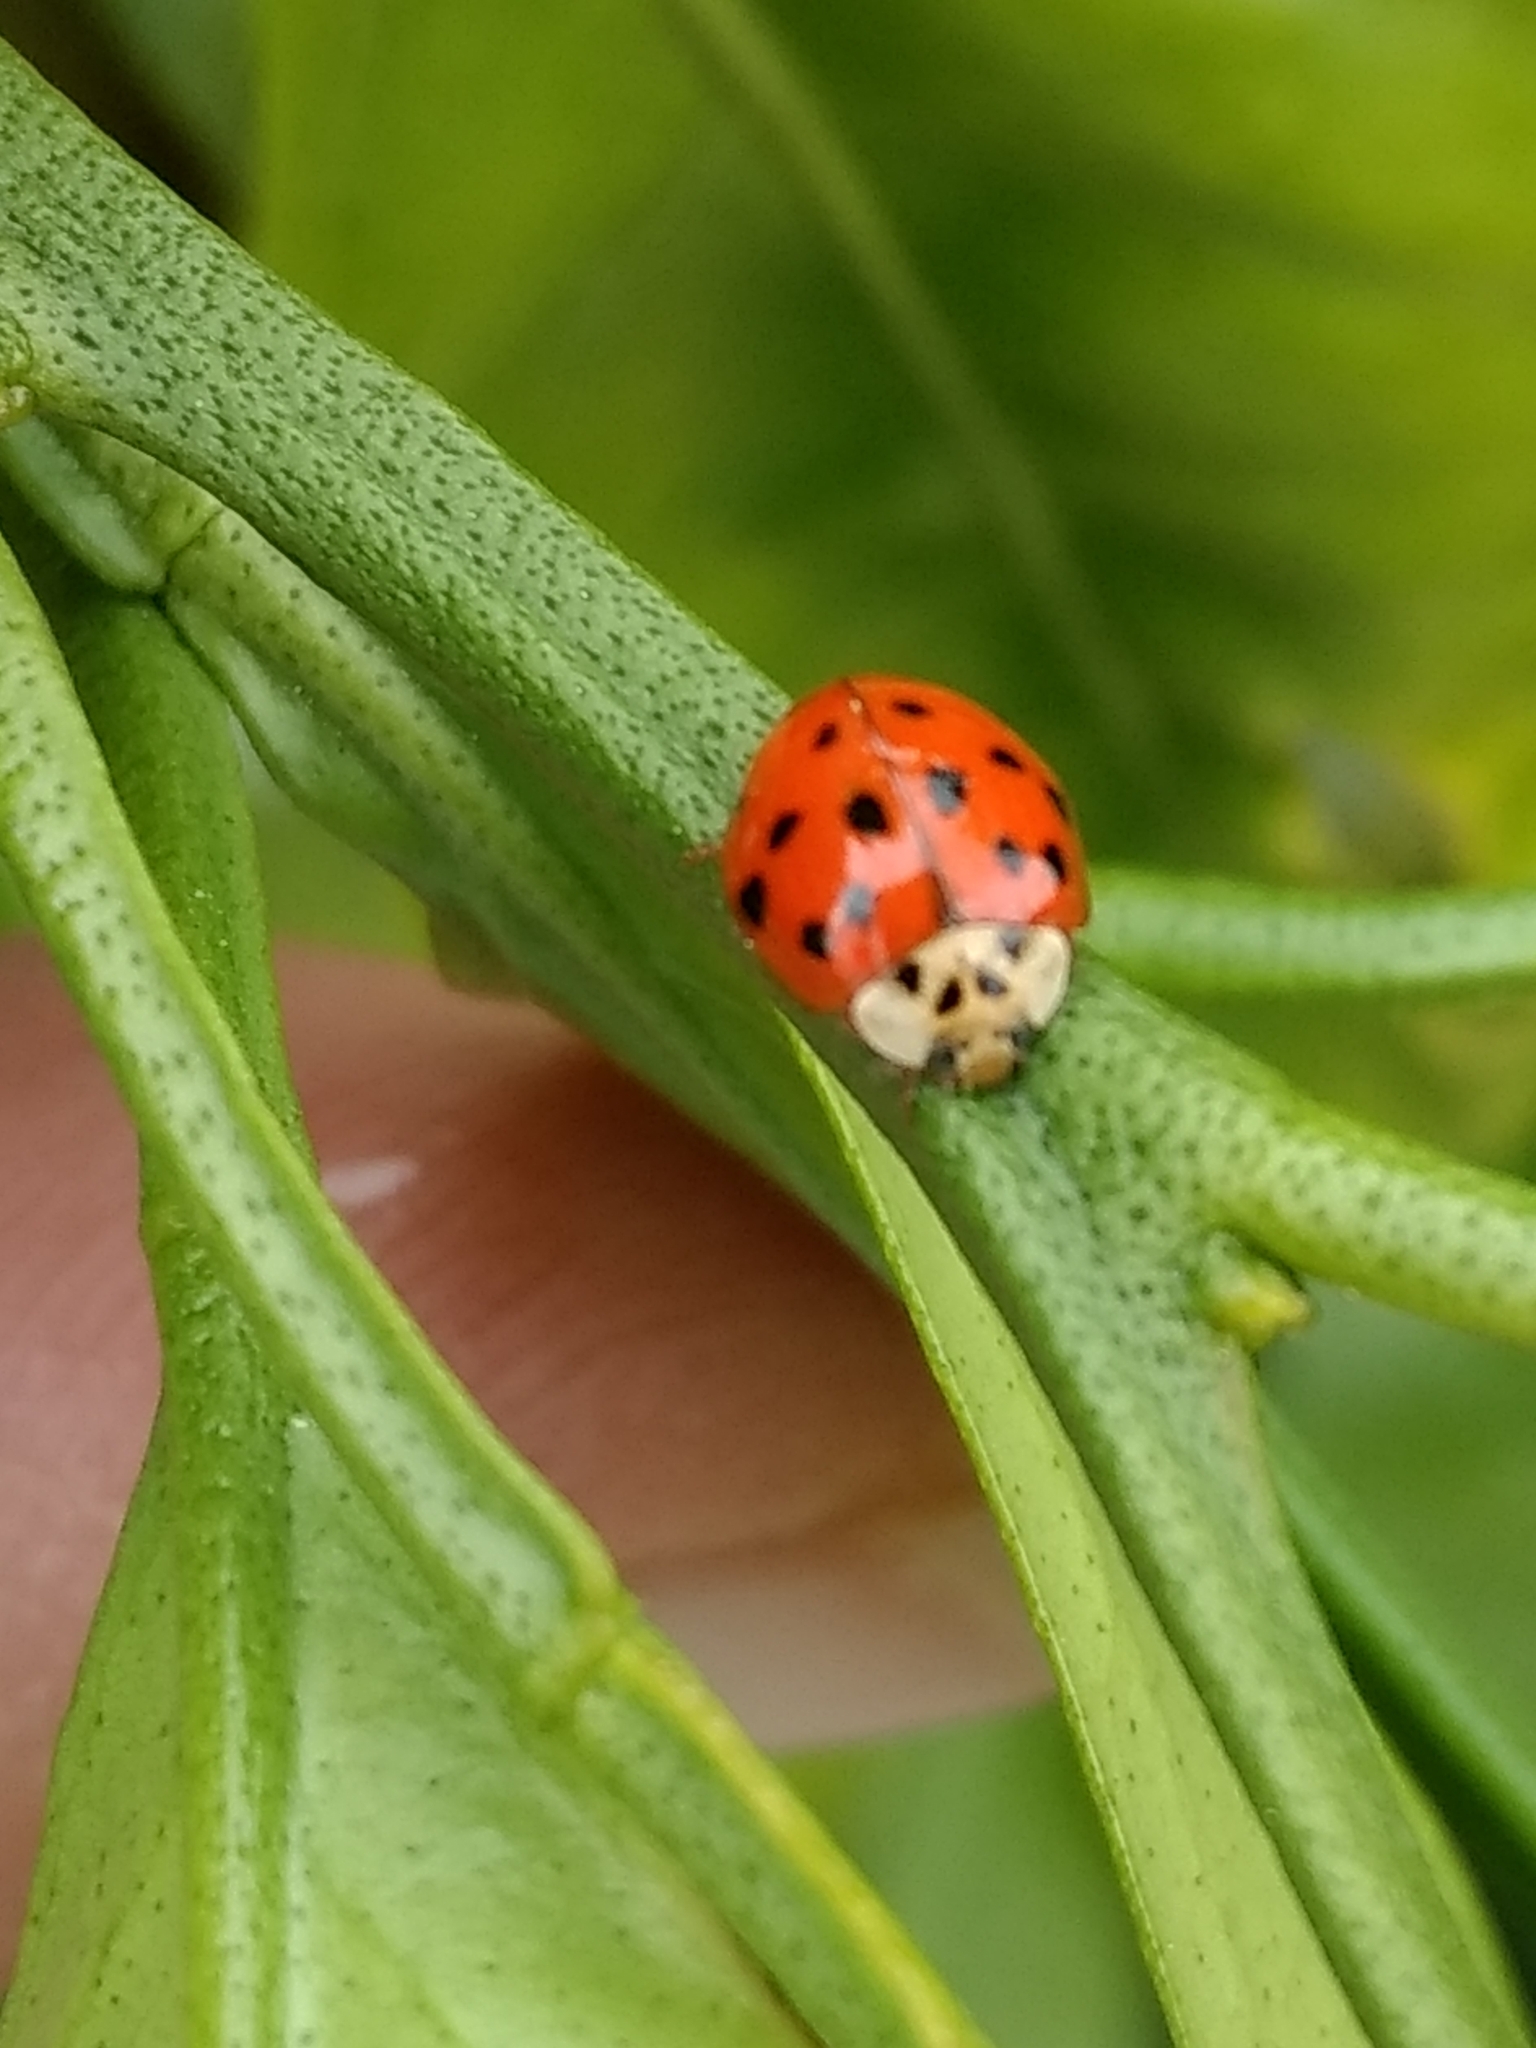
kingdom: Animalia
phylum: Arthropoda
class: Insecta
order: Coleoptera
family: Coccinellidae
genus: Harmonia
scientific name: Harmonia axyridis
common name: Harlequin ladybird
